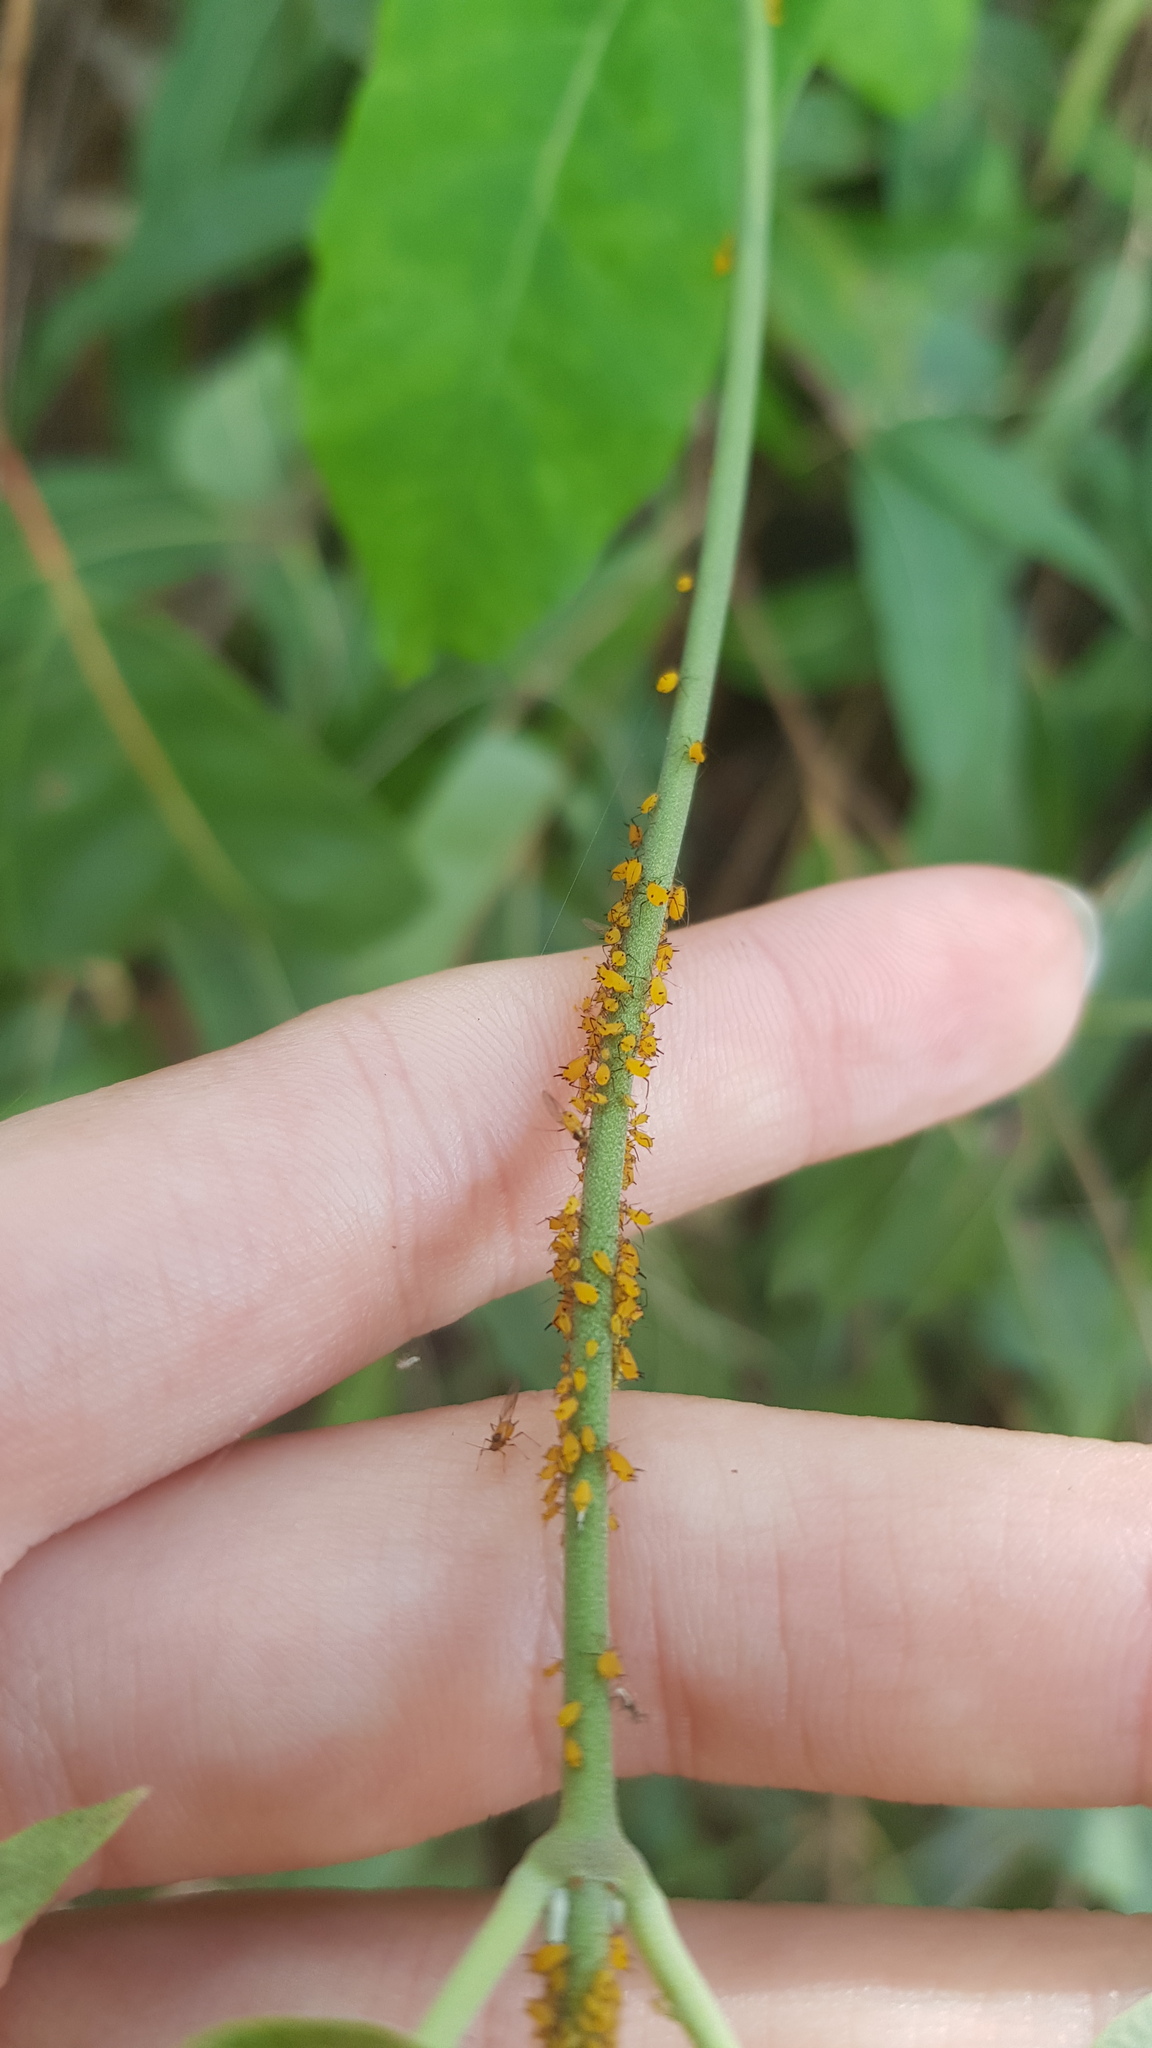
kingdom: Animalia
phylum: Arthropoda
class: Insecta
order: Hemiptera
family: Aphididae
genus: Aphis
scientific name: Aphis nerii
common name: Oleander aphid
